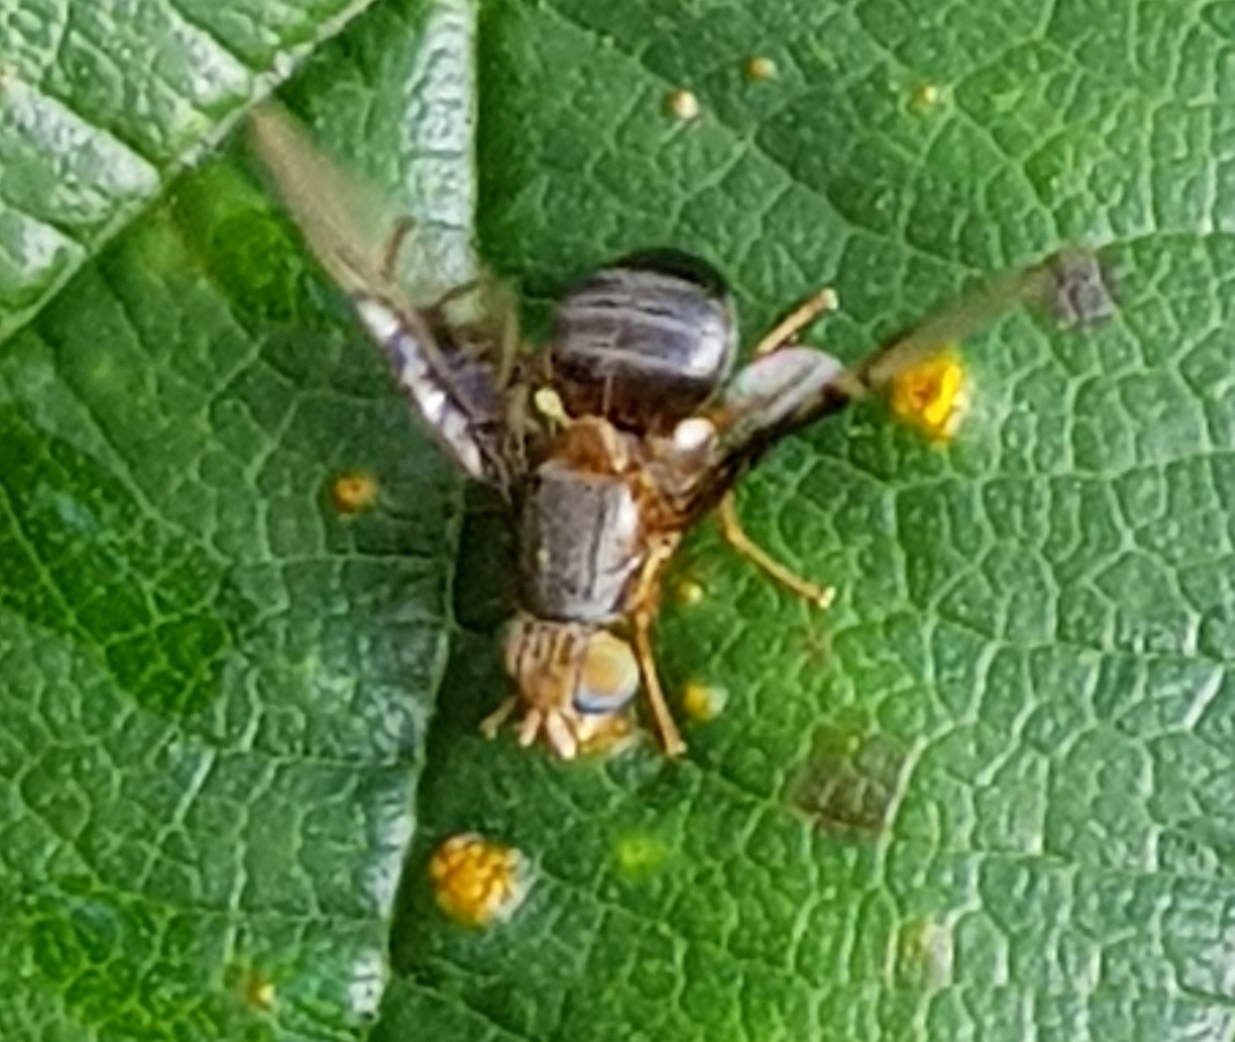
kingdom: Animalia
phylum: Arthropoda
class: Insecta
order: Diptera
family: Tephritidae
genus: Anomoia
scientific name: Anomoia purmunda
